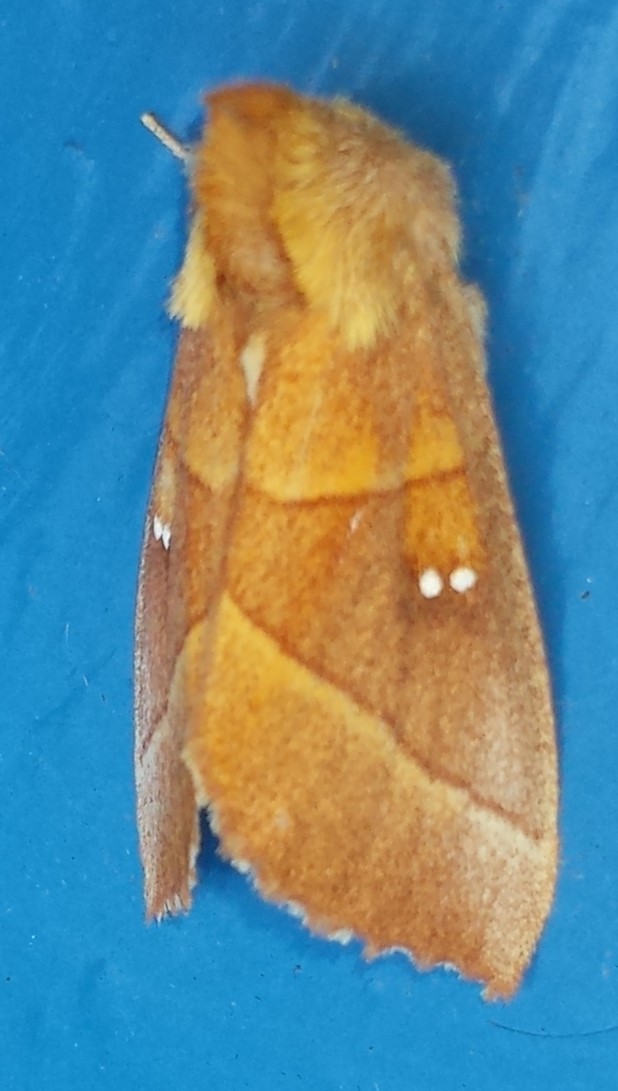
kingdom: Animalia
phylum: Arthropoda
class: Insecta
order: Lepidoptera
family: Notodontidae
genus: Nadata
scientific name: Nadata gibbosa
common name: White-dotted prominent
